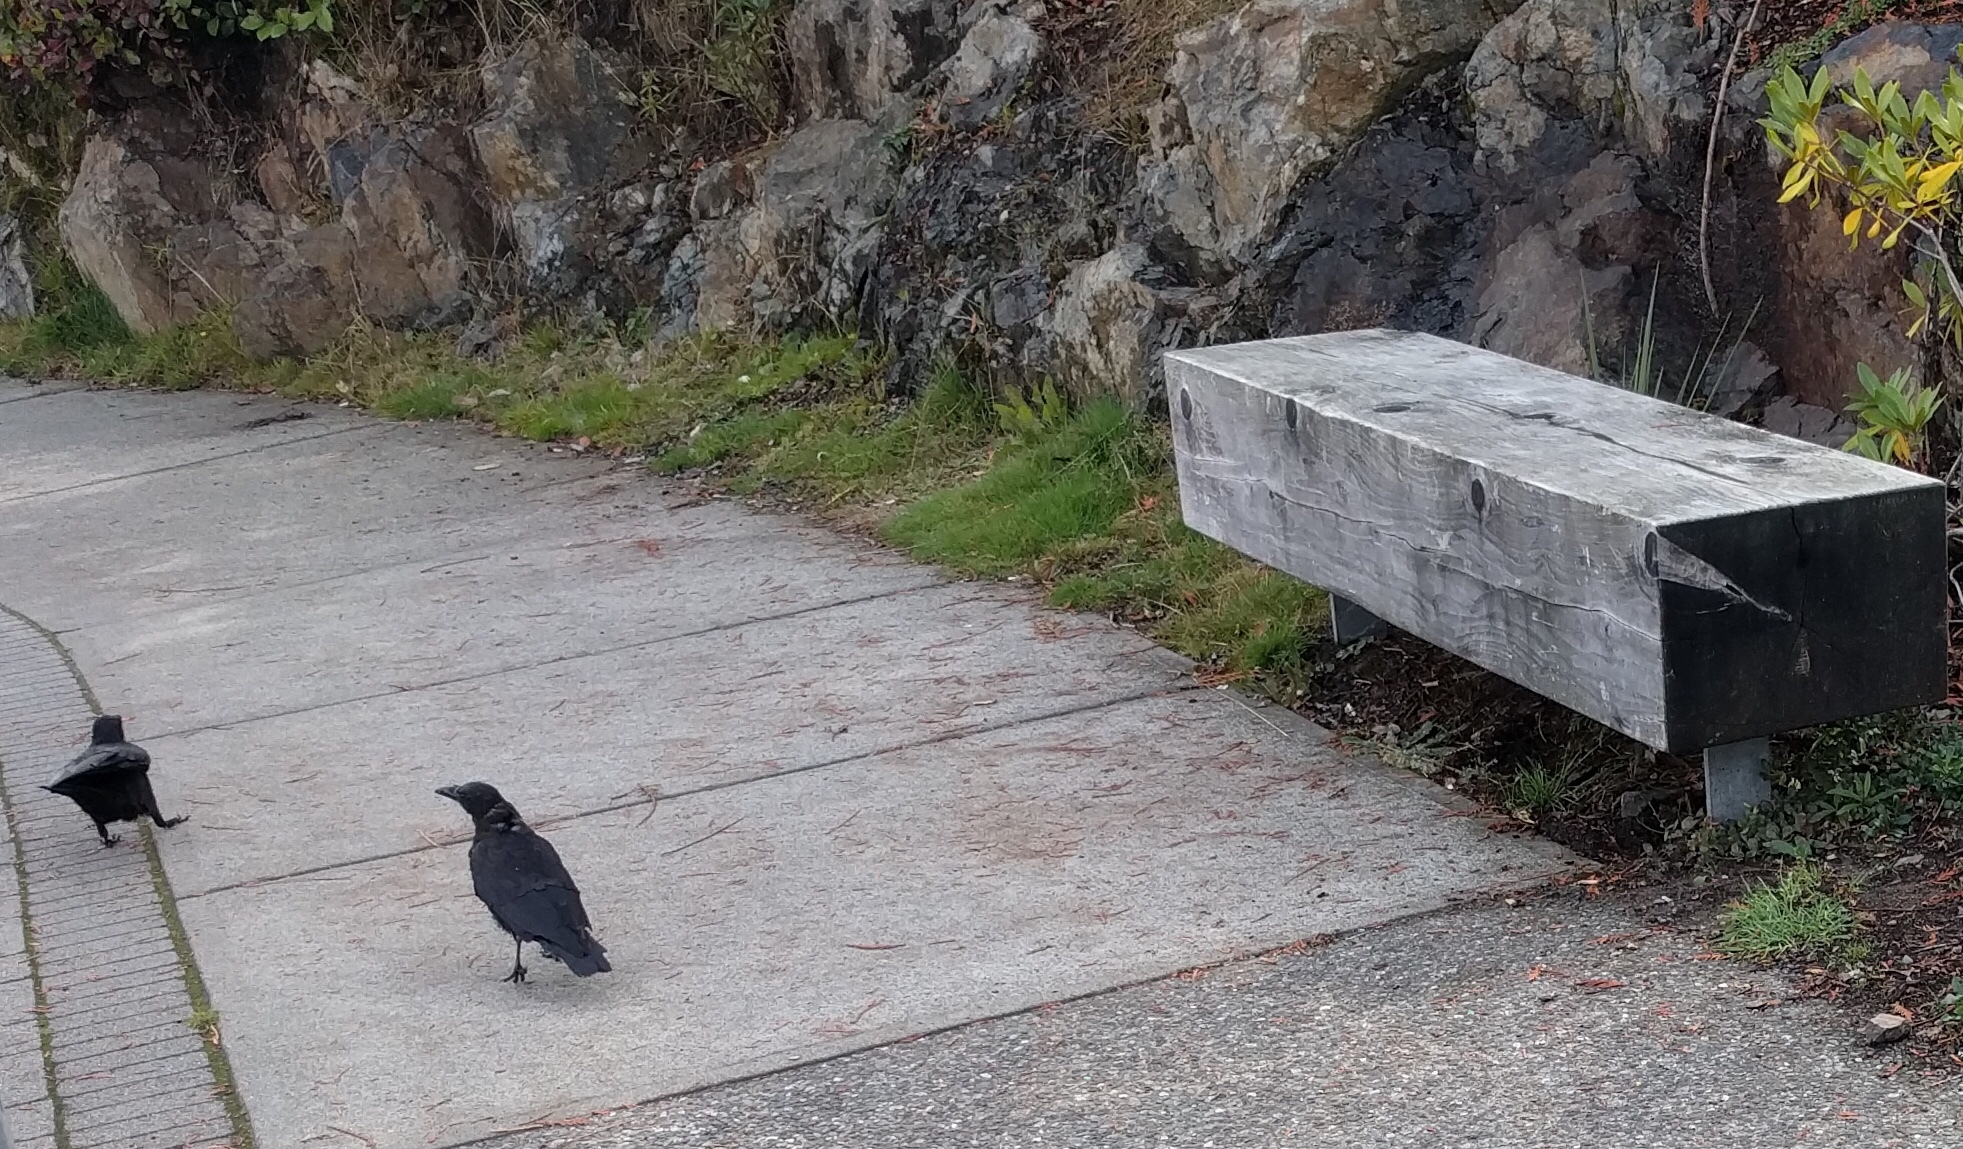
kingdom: Animalia
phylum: Chordata
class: Aves
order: Passeriformes
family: Corvidae
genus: Corvus
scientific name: Corvus brachyrhynchos
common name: American crow
